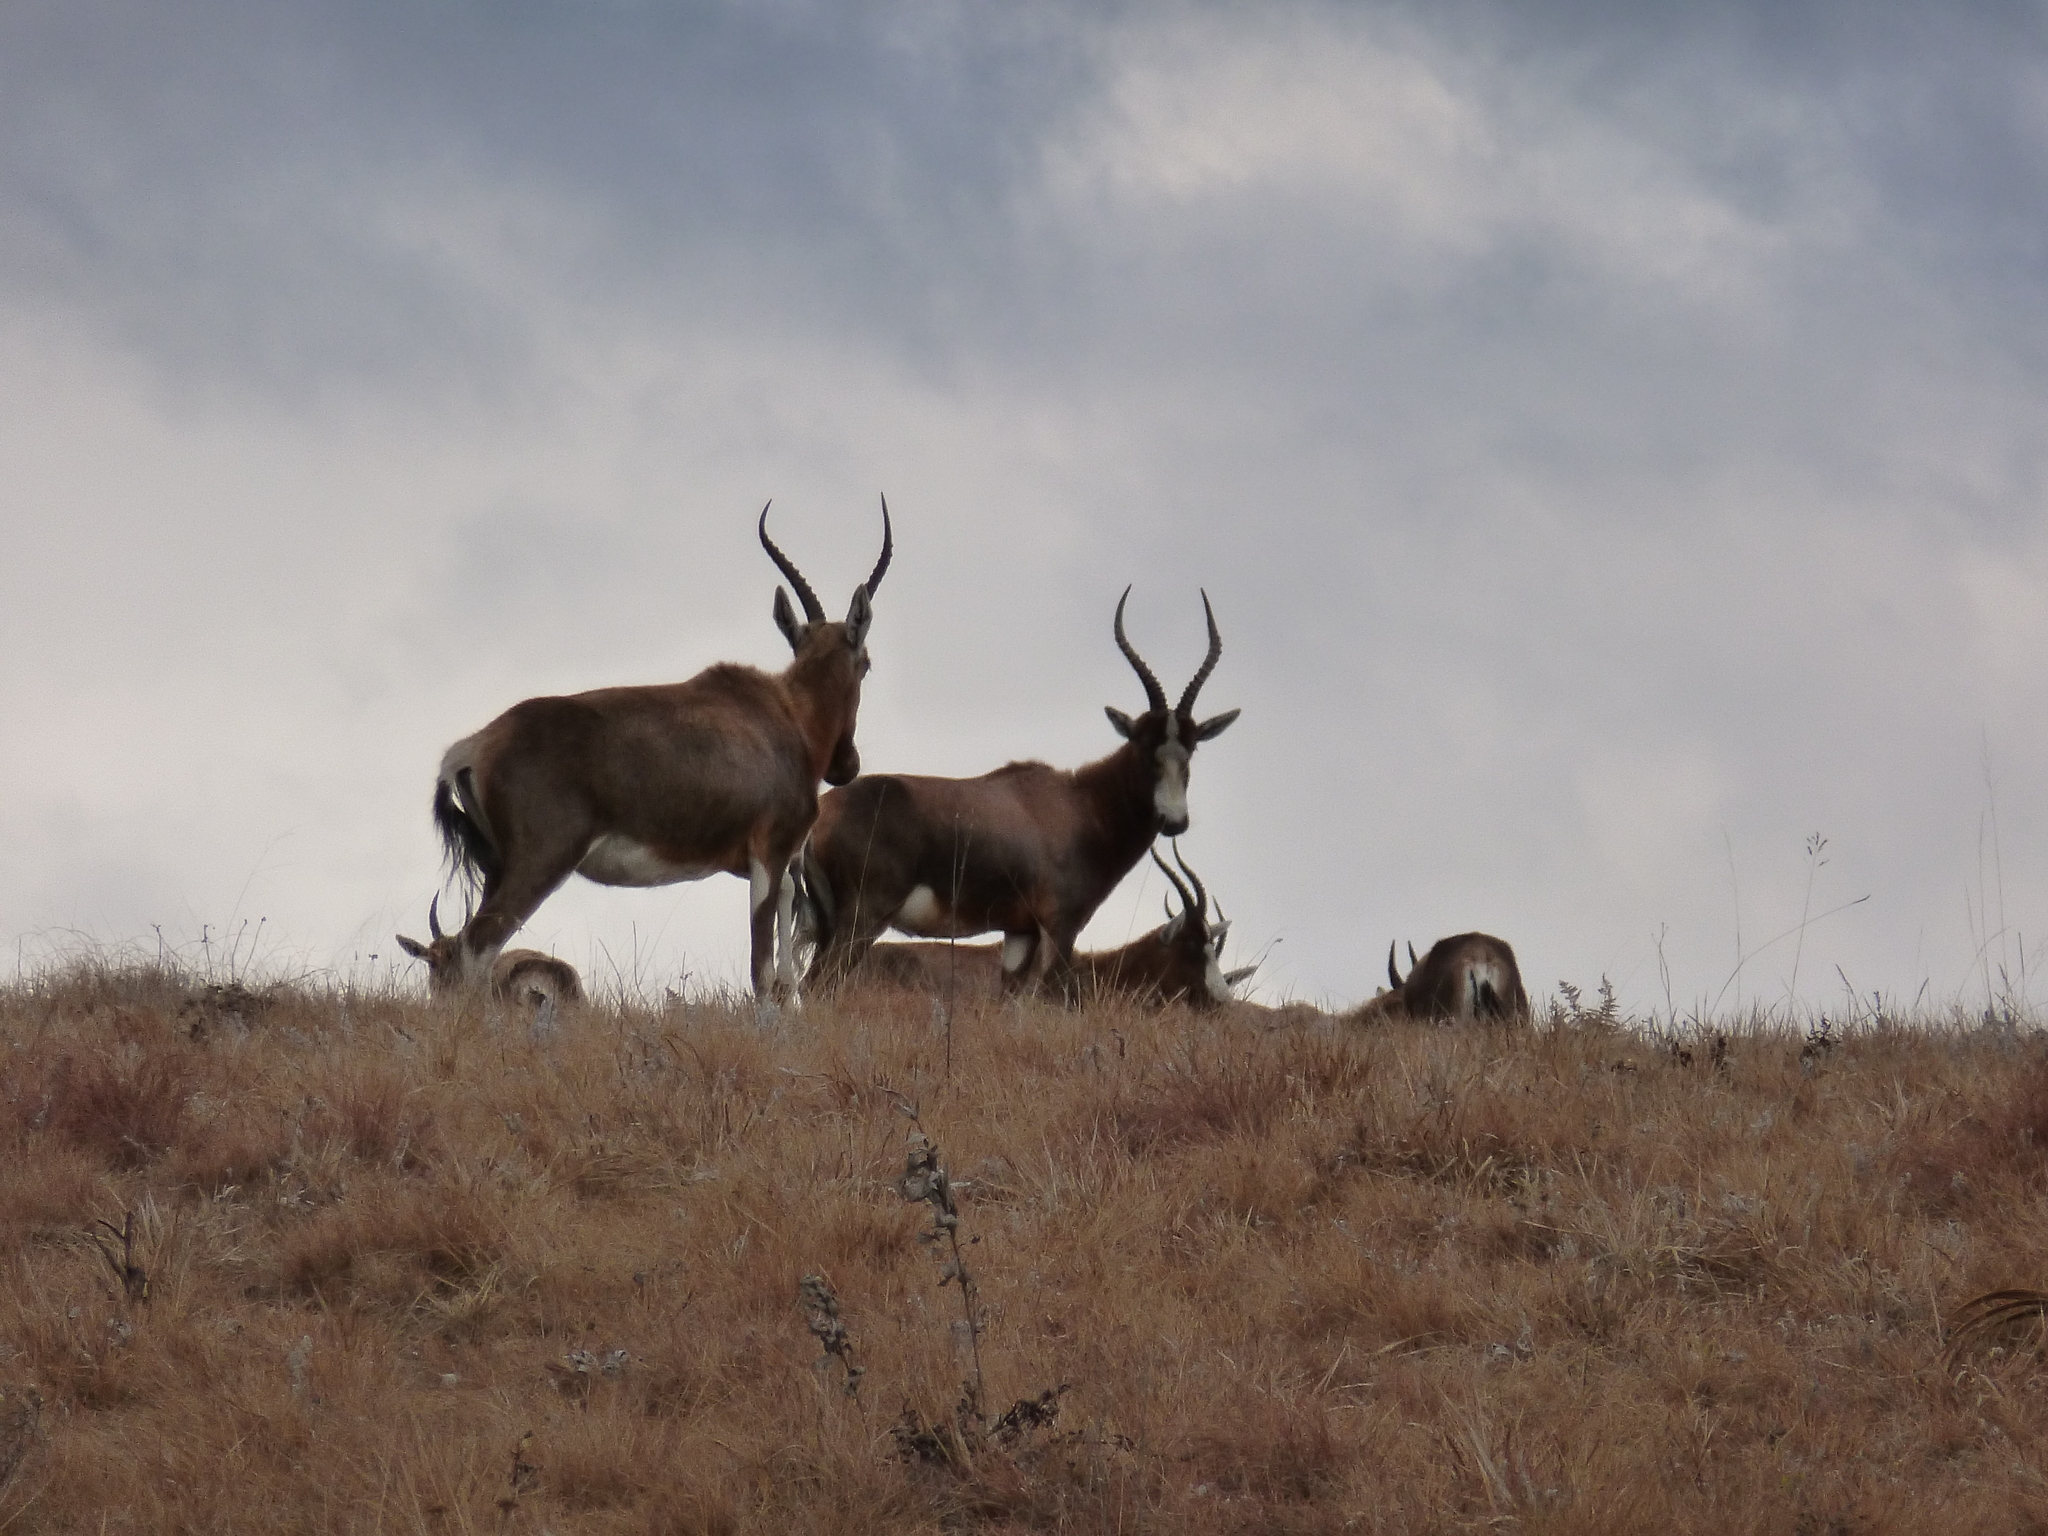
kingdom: Animalia
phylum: Chordata
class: Mammalia
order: Artiodactyla
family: Bovidae
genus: Damaliscus
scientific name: Damaliscus pygargus
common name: Bontebok
